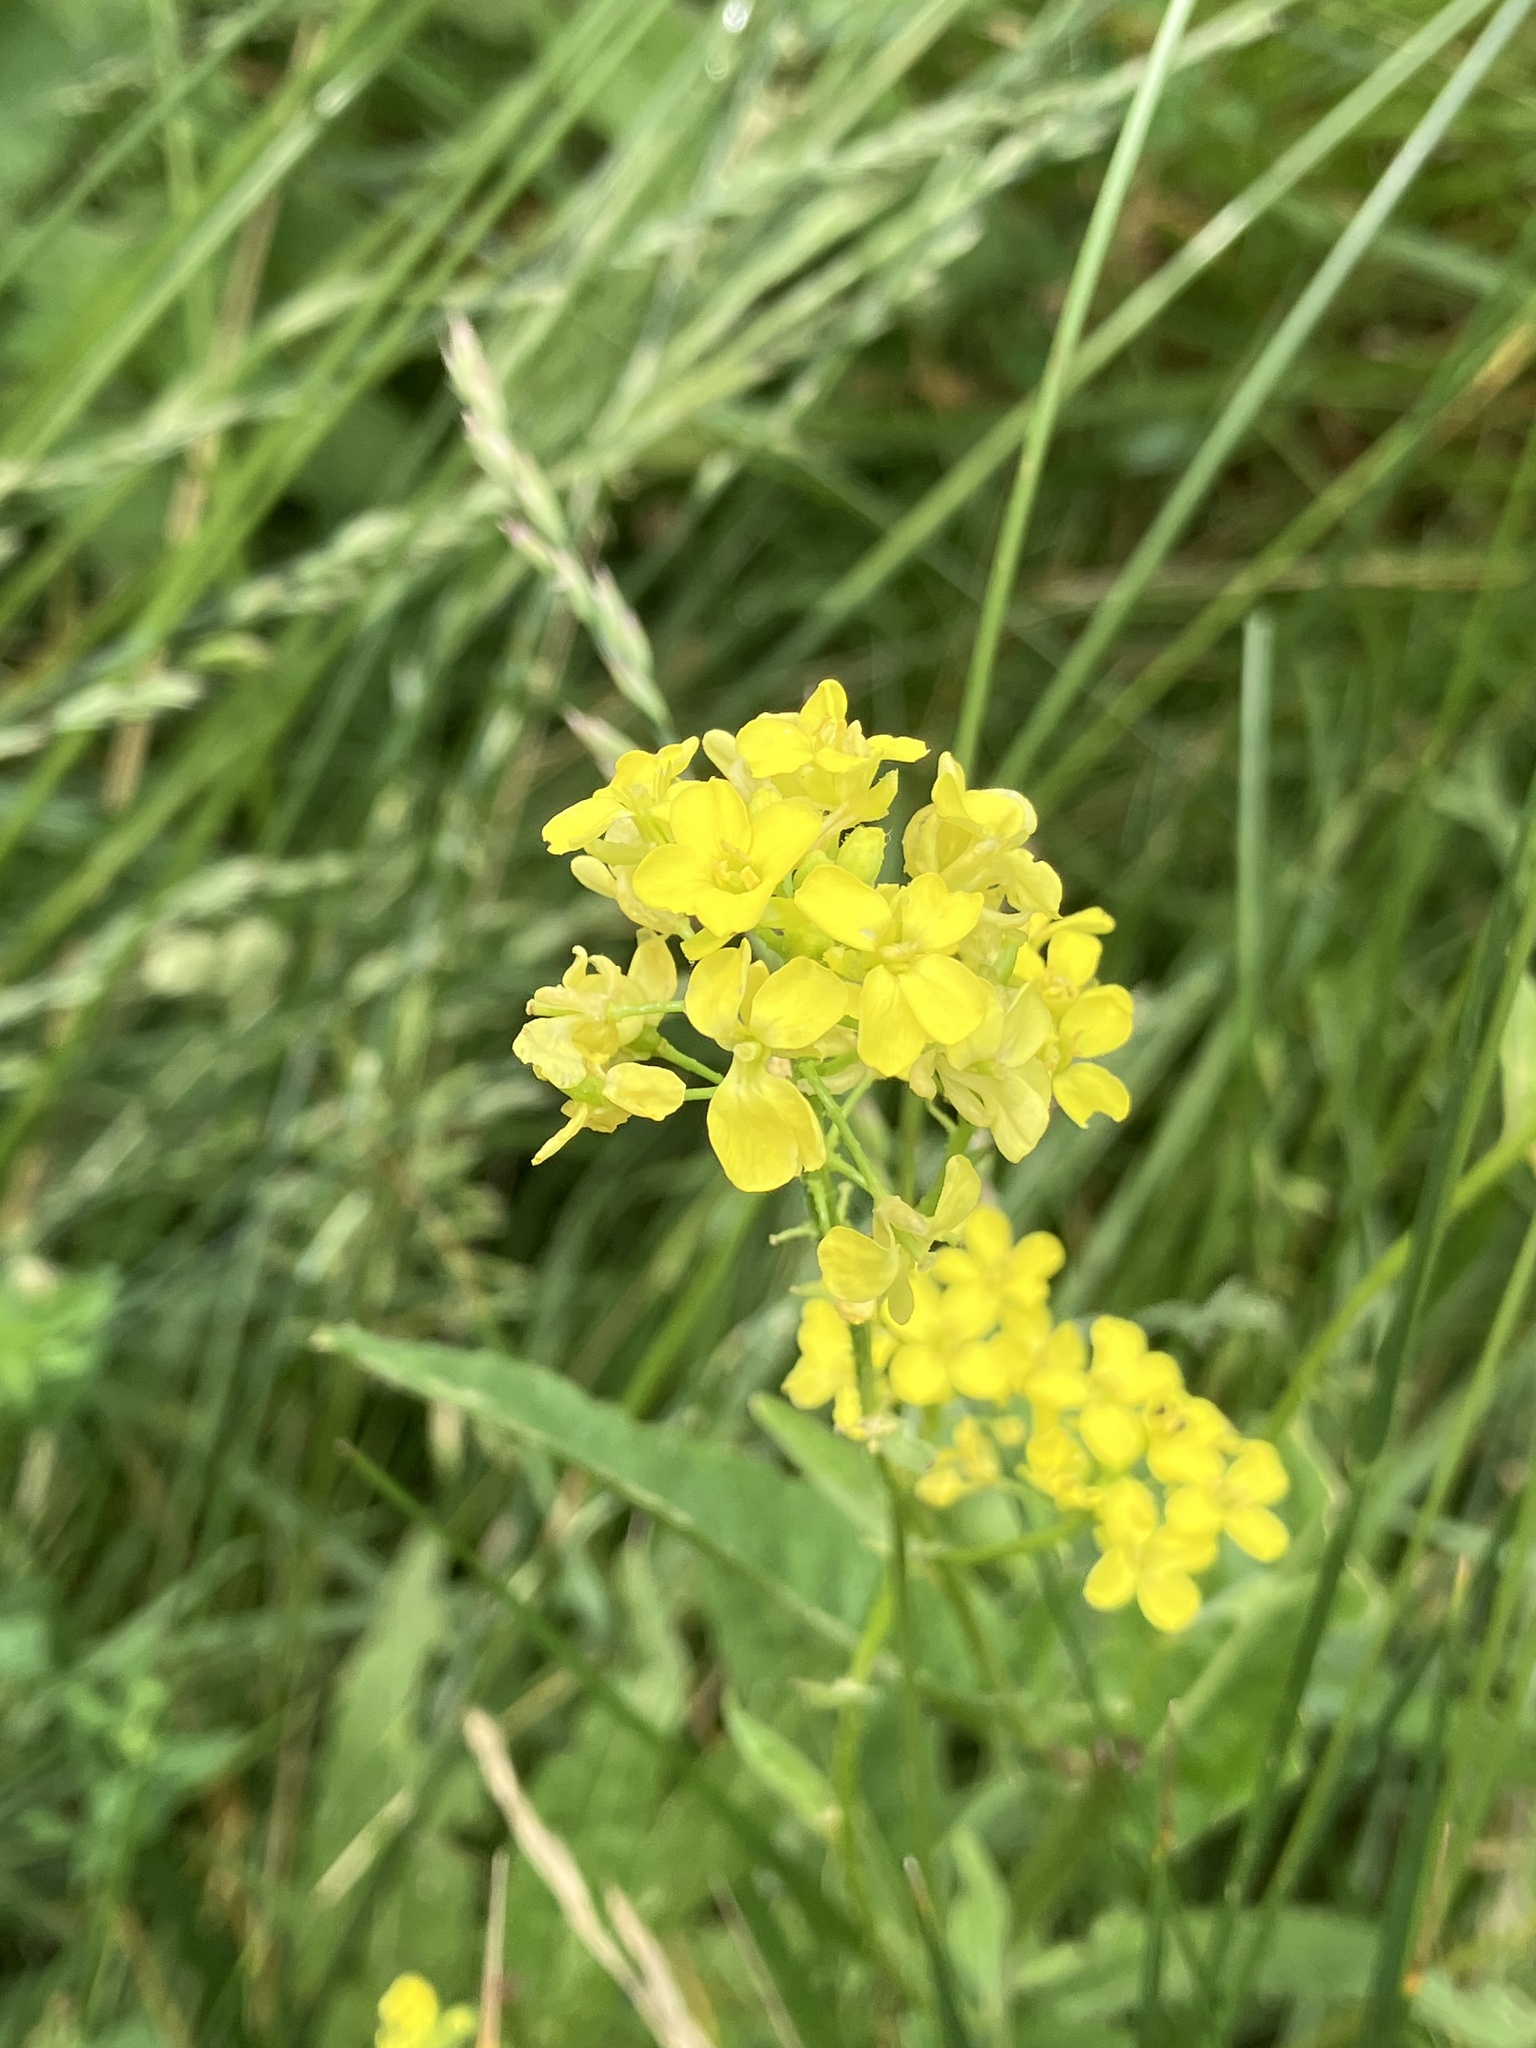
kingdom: Plantae
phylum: Tracheophyta
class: Magnoliopsida
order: Brassicales
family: Brassicaceae
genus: Bunias
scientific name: Bunias orientalis
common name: Warty-cabbage
